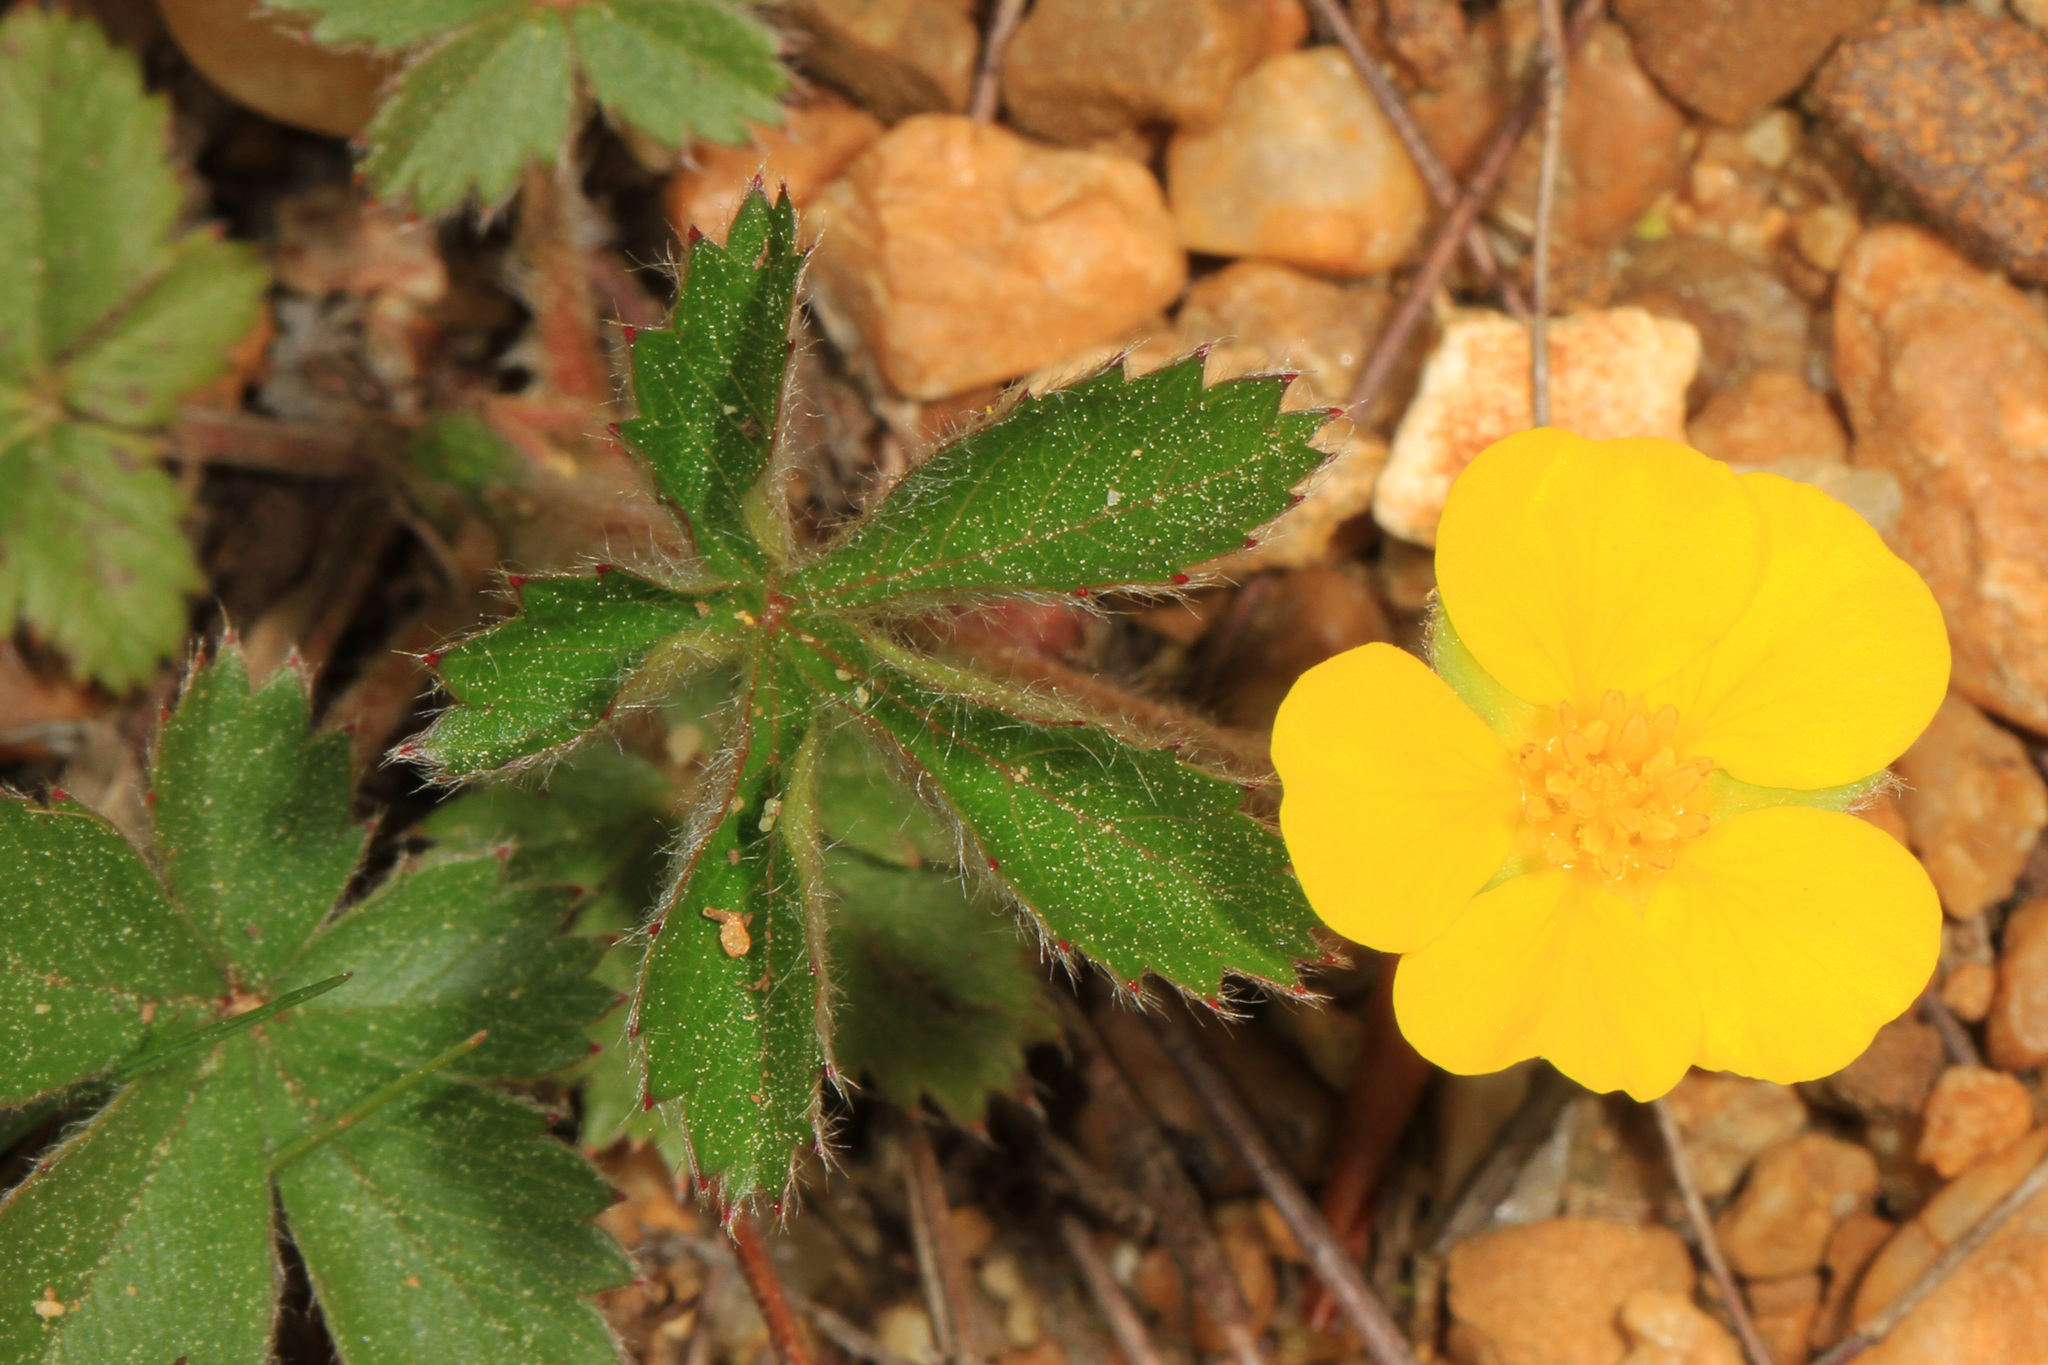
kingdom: Plantae
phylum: Tracheophyta
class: Magnoliopsida
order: Rosales
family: Rosaceae
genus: Potentilla
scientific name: Potentilla canadensis
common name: Canada cinquefoil
